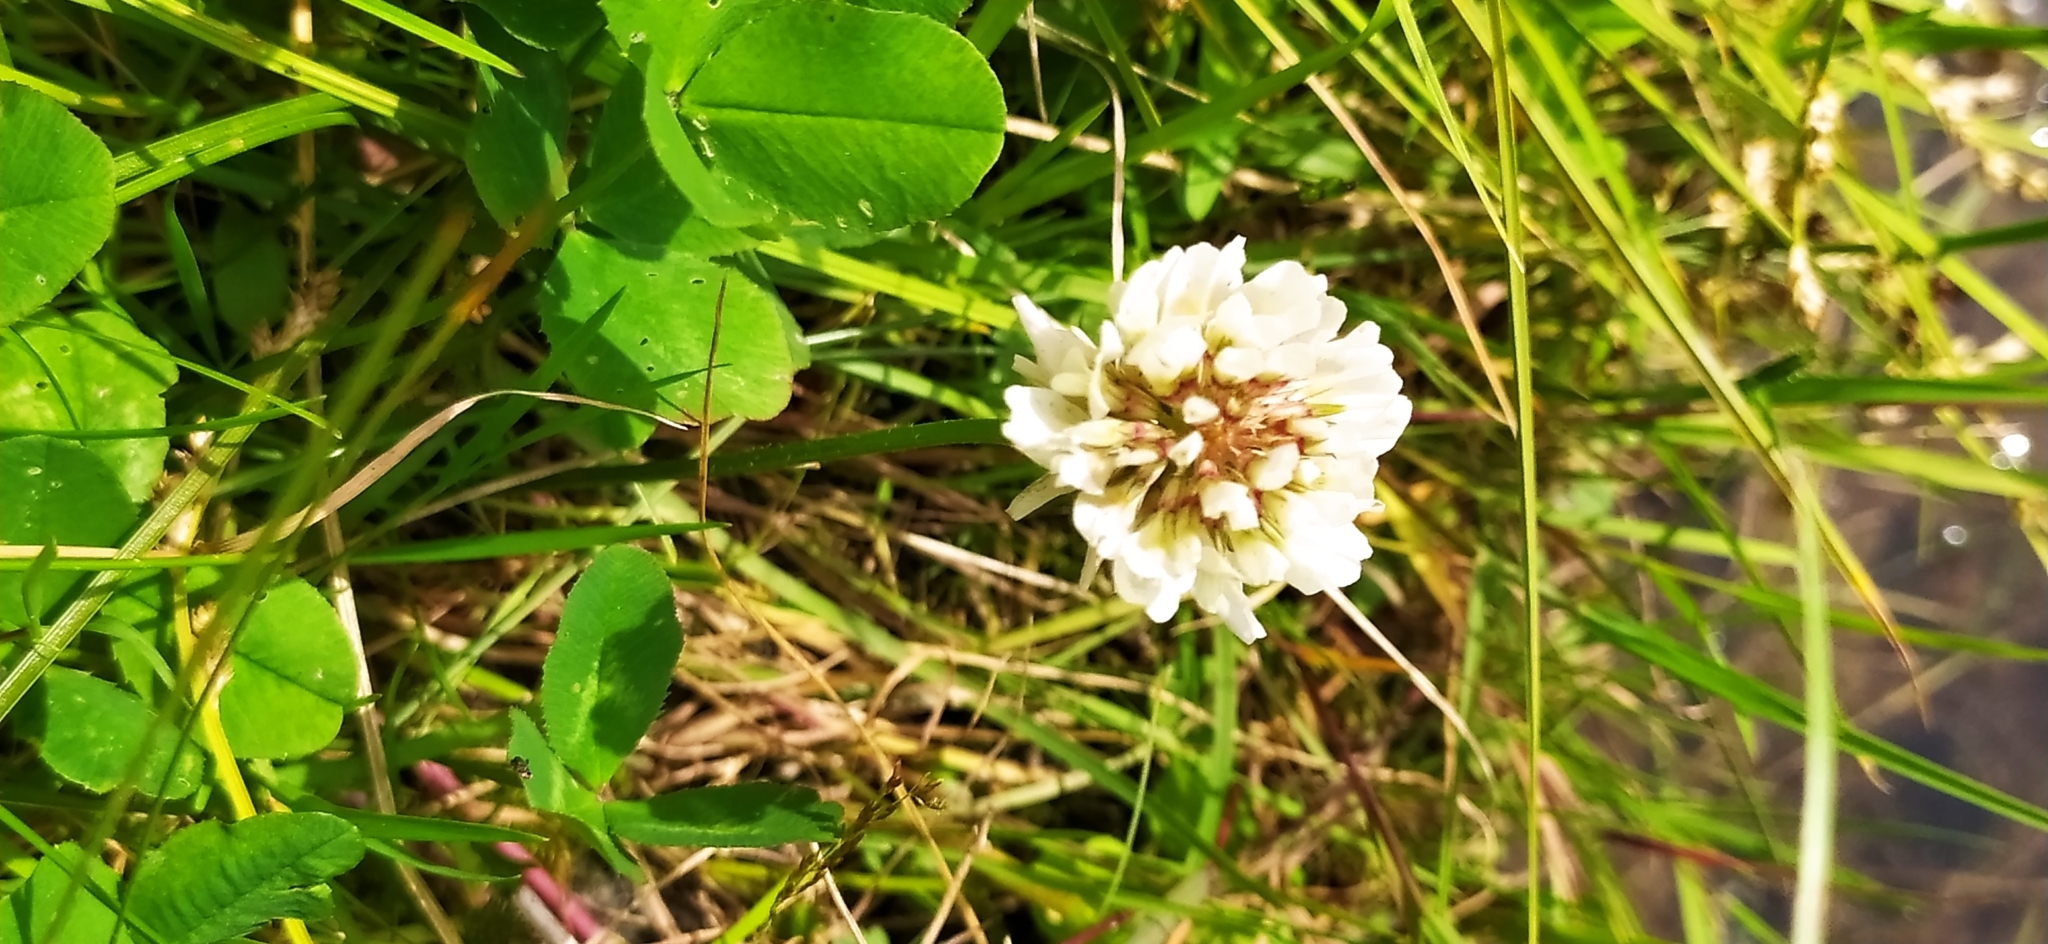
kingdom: Plantae
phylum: Tracheophyta
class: Magnoliopsida
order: Fabales
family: Fabaceae
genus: Trifolium
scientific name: Trifolium repens
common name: White clover
